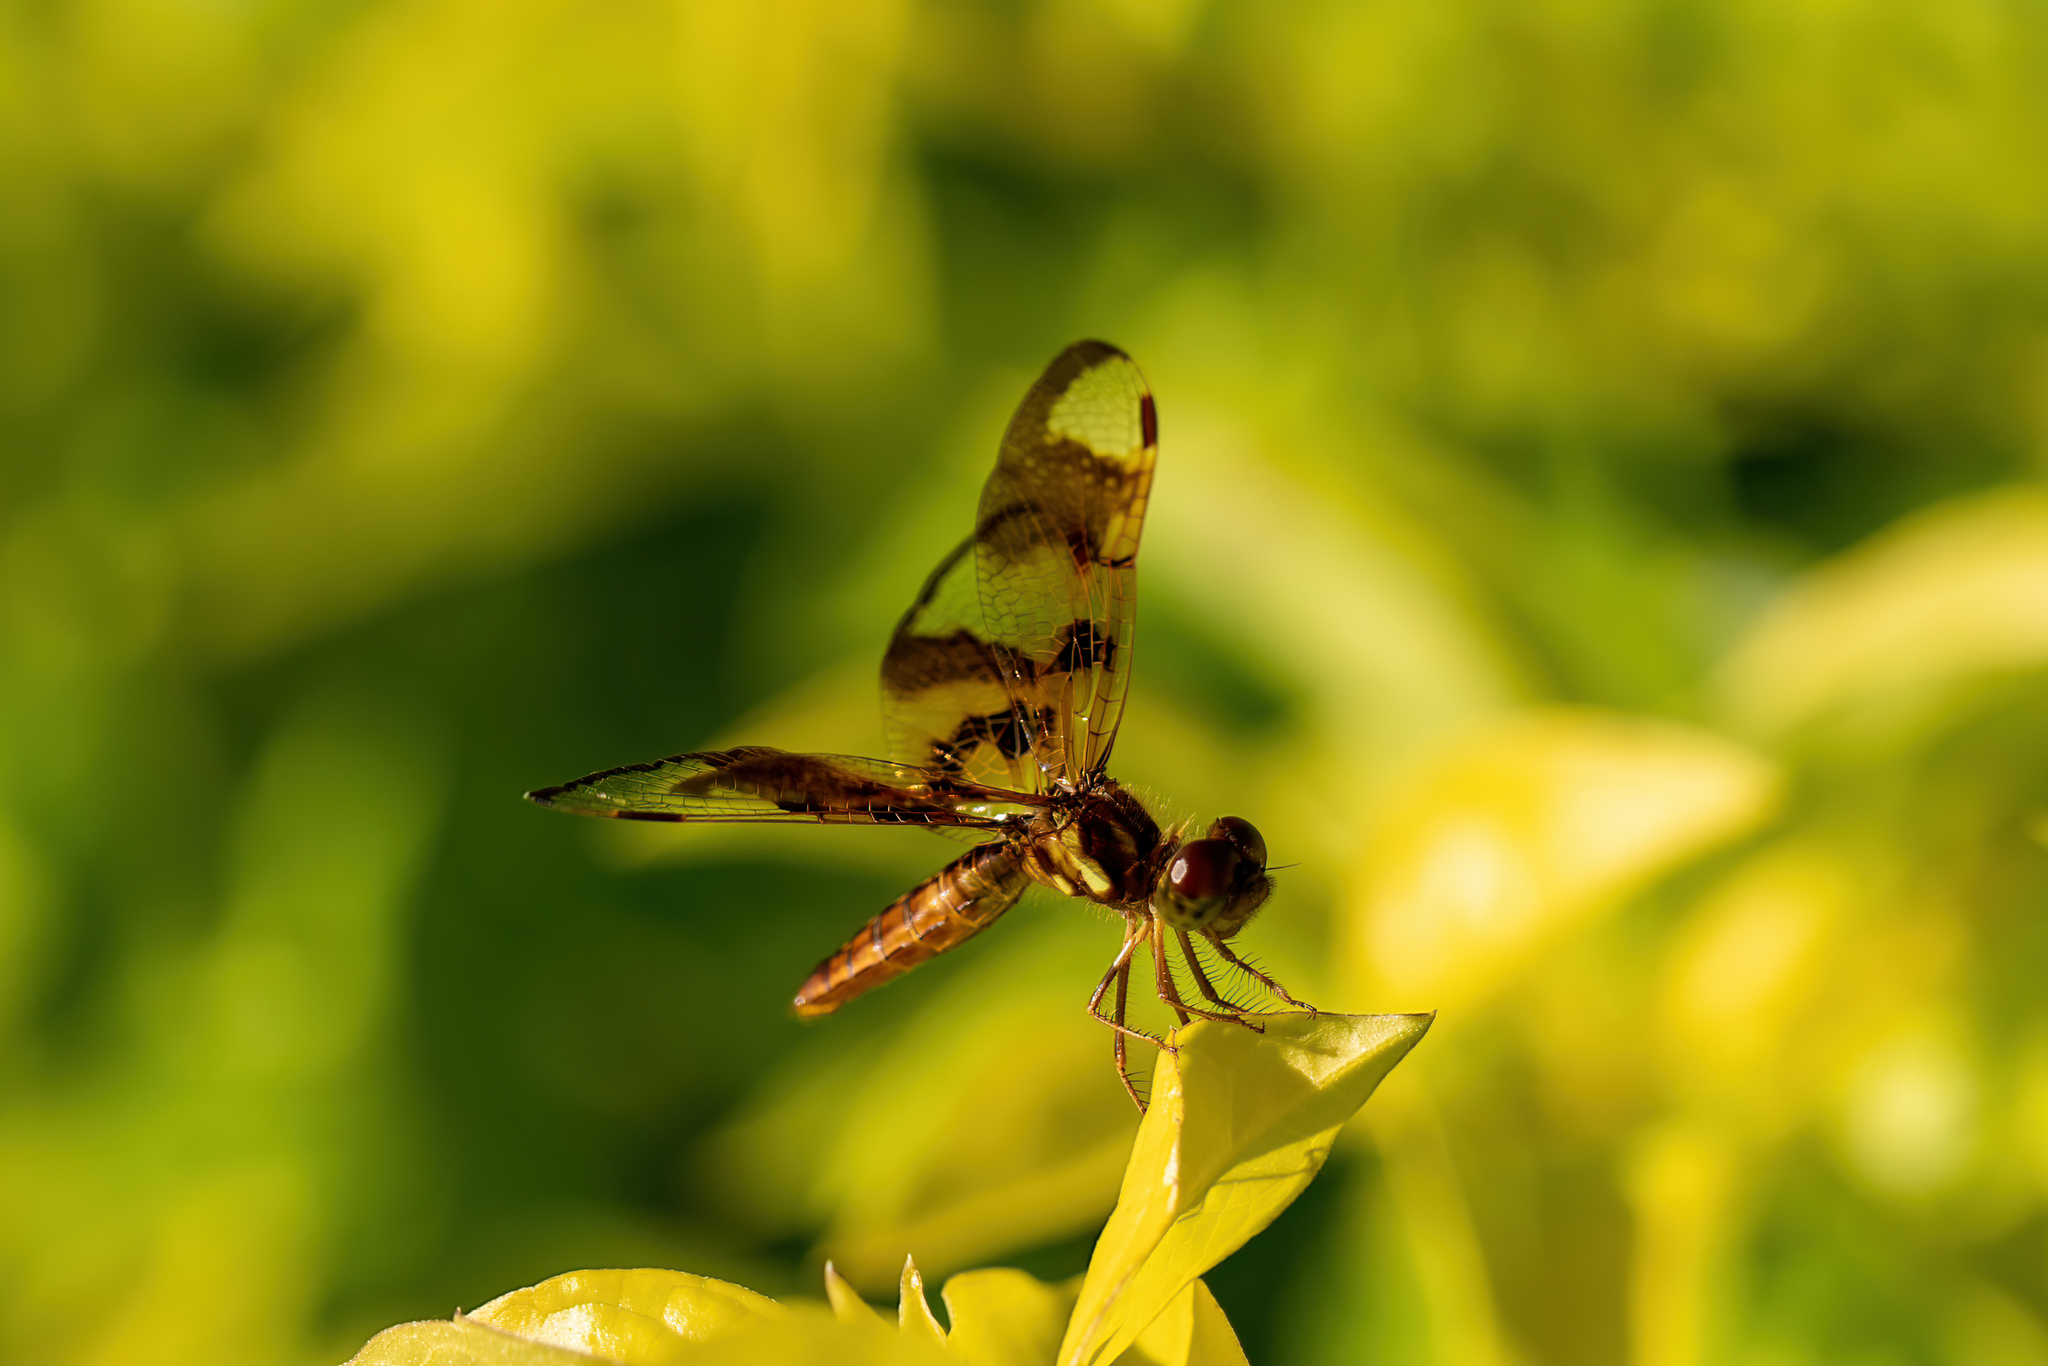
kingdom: Animalia
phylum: Arthropoda
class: Insecta
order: Odonata
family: Libellulidae
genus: Perithemis
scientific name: Perithemis tenera
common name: Eastern amberwing
